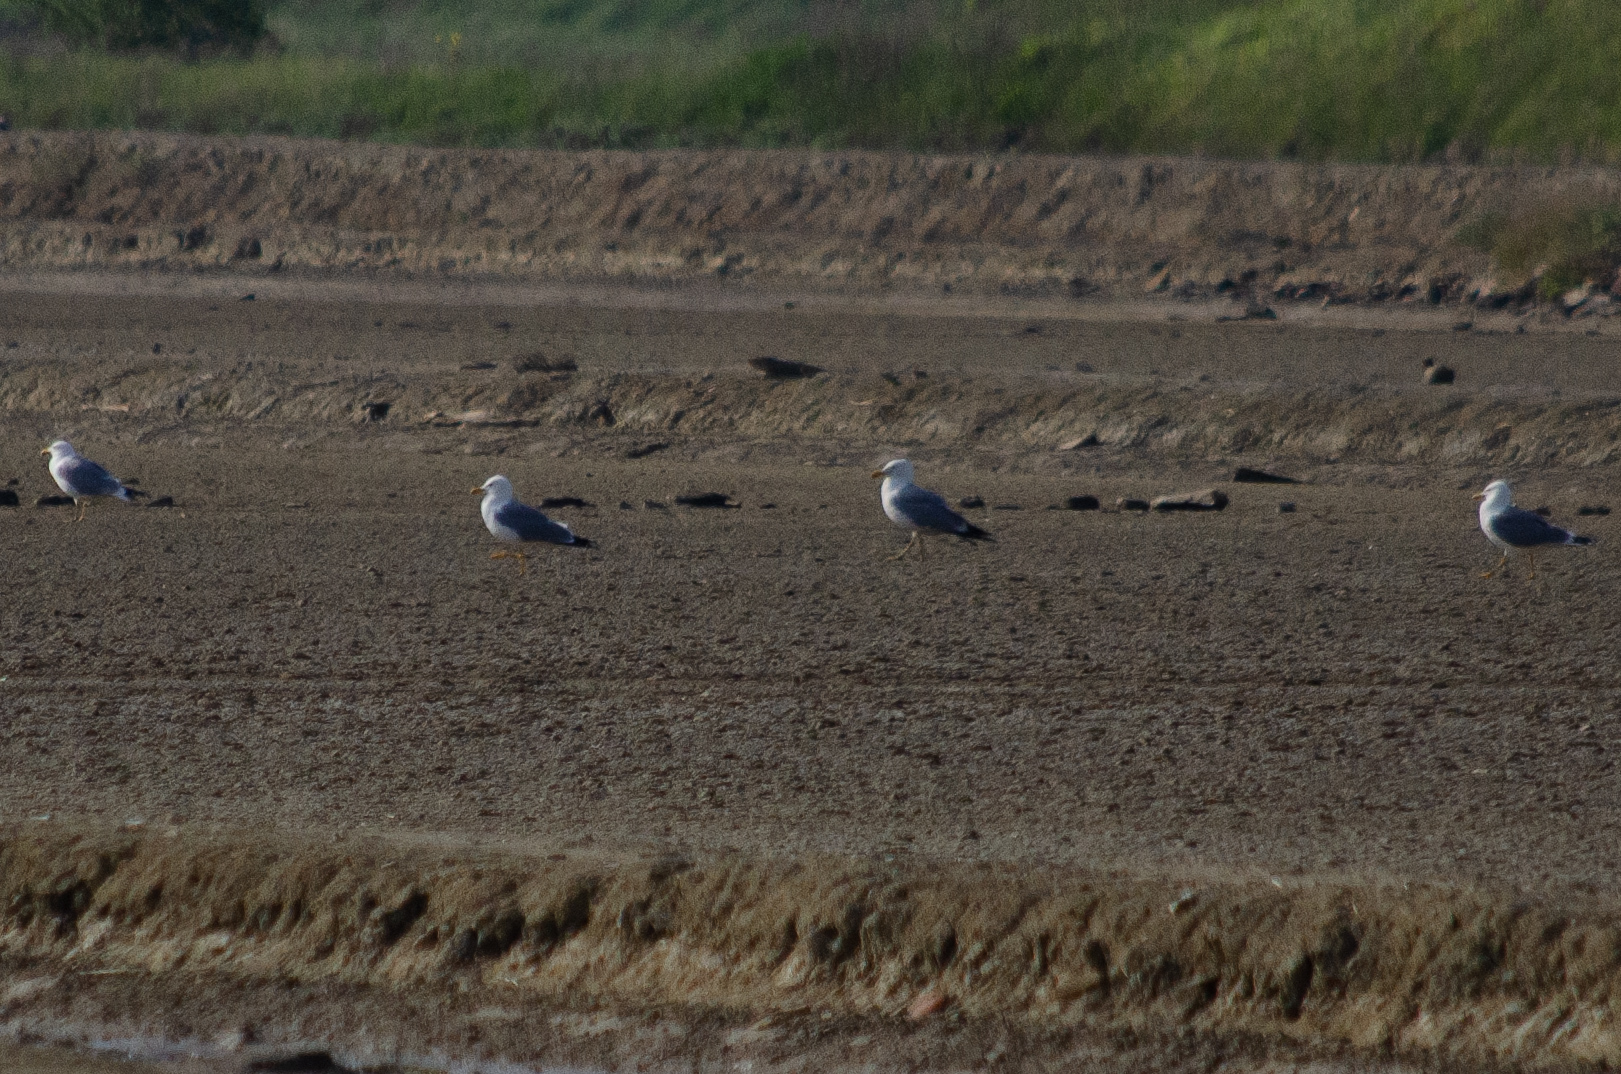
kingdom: Animalia
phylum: Chordata
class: Aves
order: Charadriiformes
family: Laridae
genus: Larus
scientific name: Larus michahellis
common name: Yellow-legged gull
